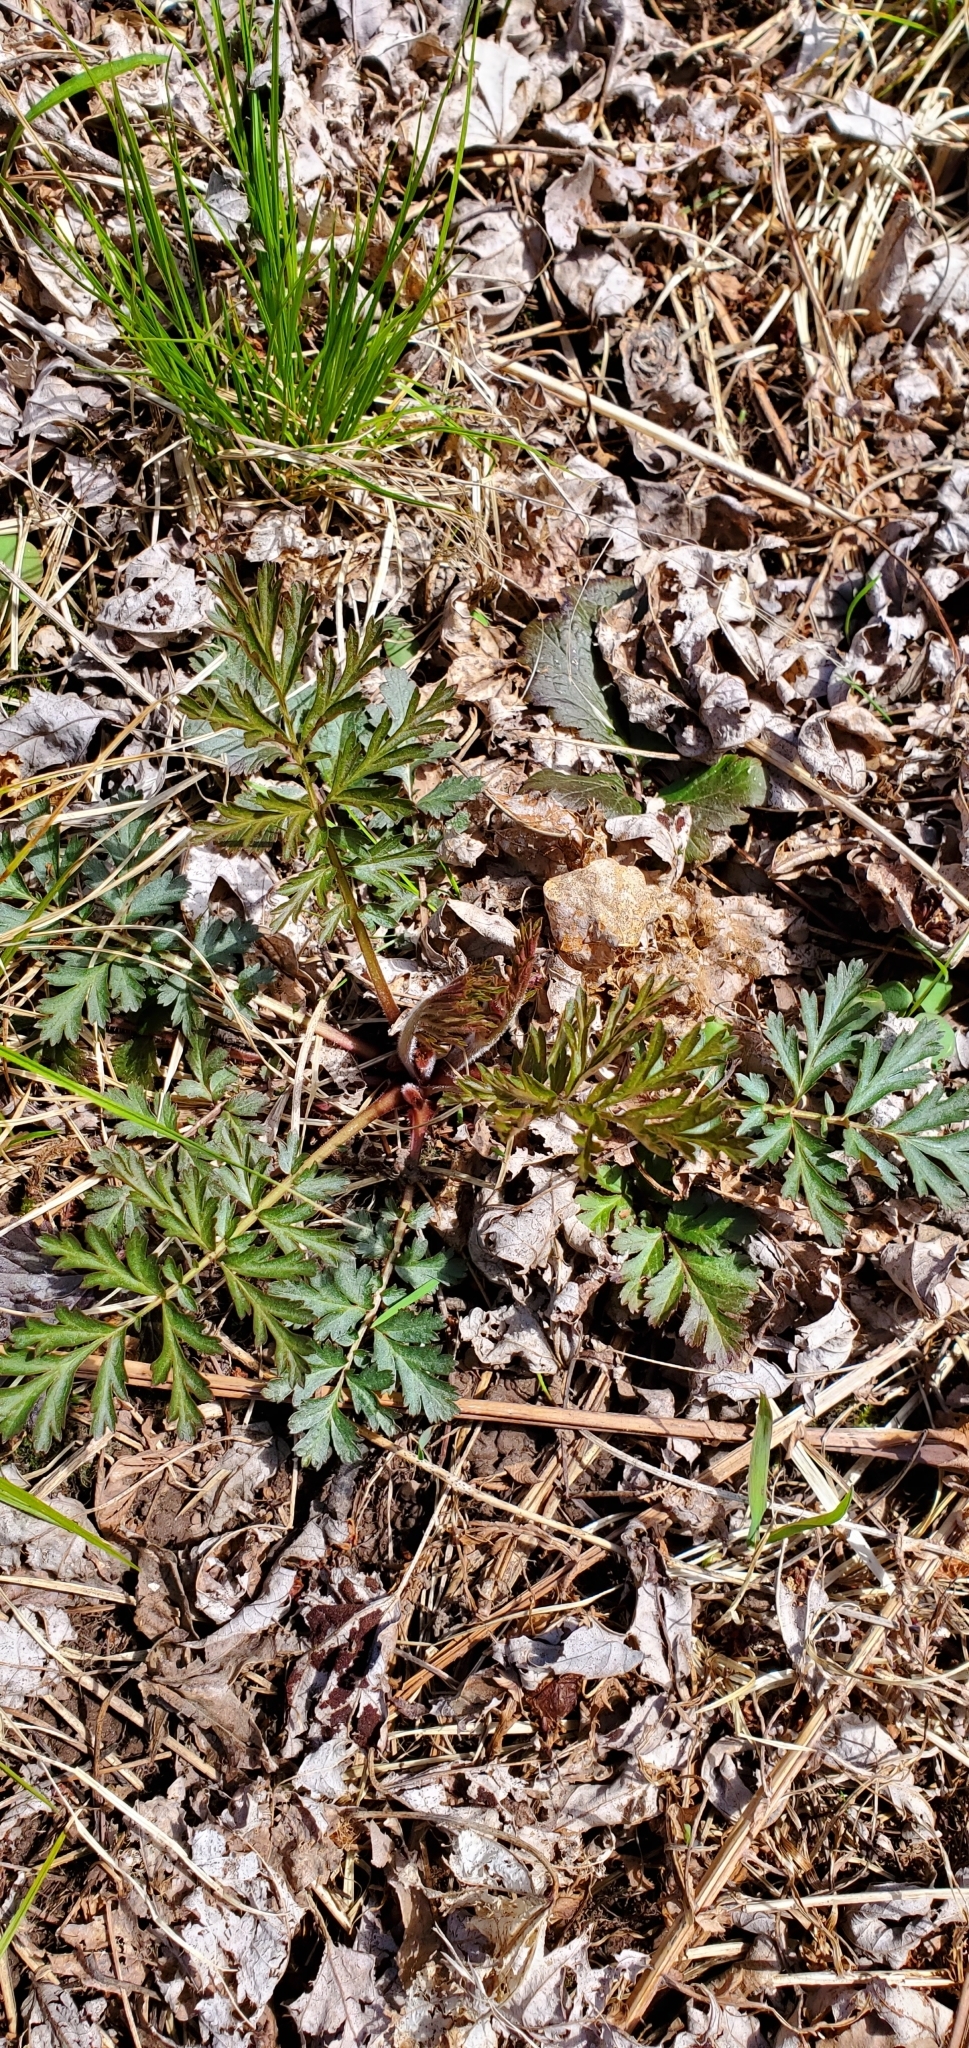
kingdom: Plantae
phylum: Tracheophyta
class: Magnoliopsida
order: Rosales
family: Rosaceae
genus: Geum
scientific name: Geum triflorum
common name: Old man's whiskers
